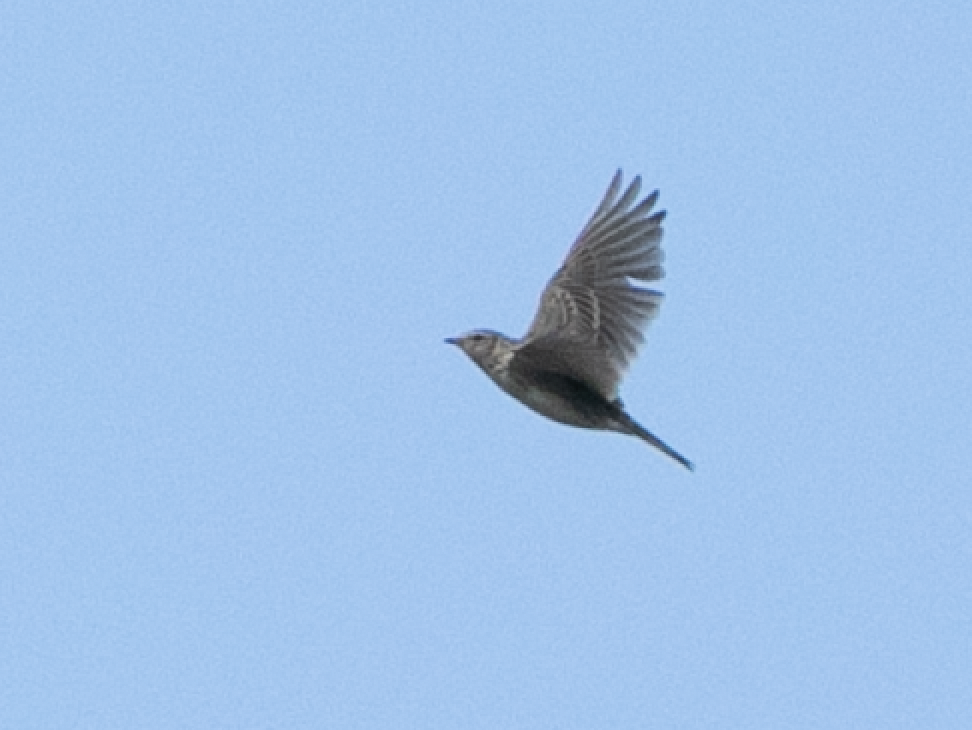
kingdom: Animalia
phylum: Chordata
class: Aves
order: Passeriformes
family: Alaudidae
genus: Alauda
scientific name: Alauda arvensis
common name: Eurasian skylark
